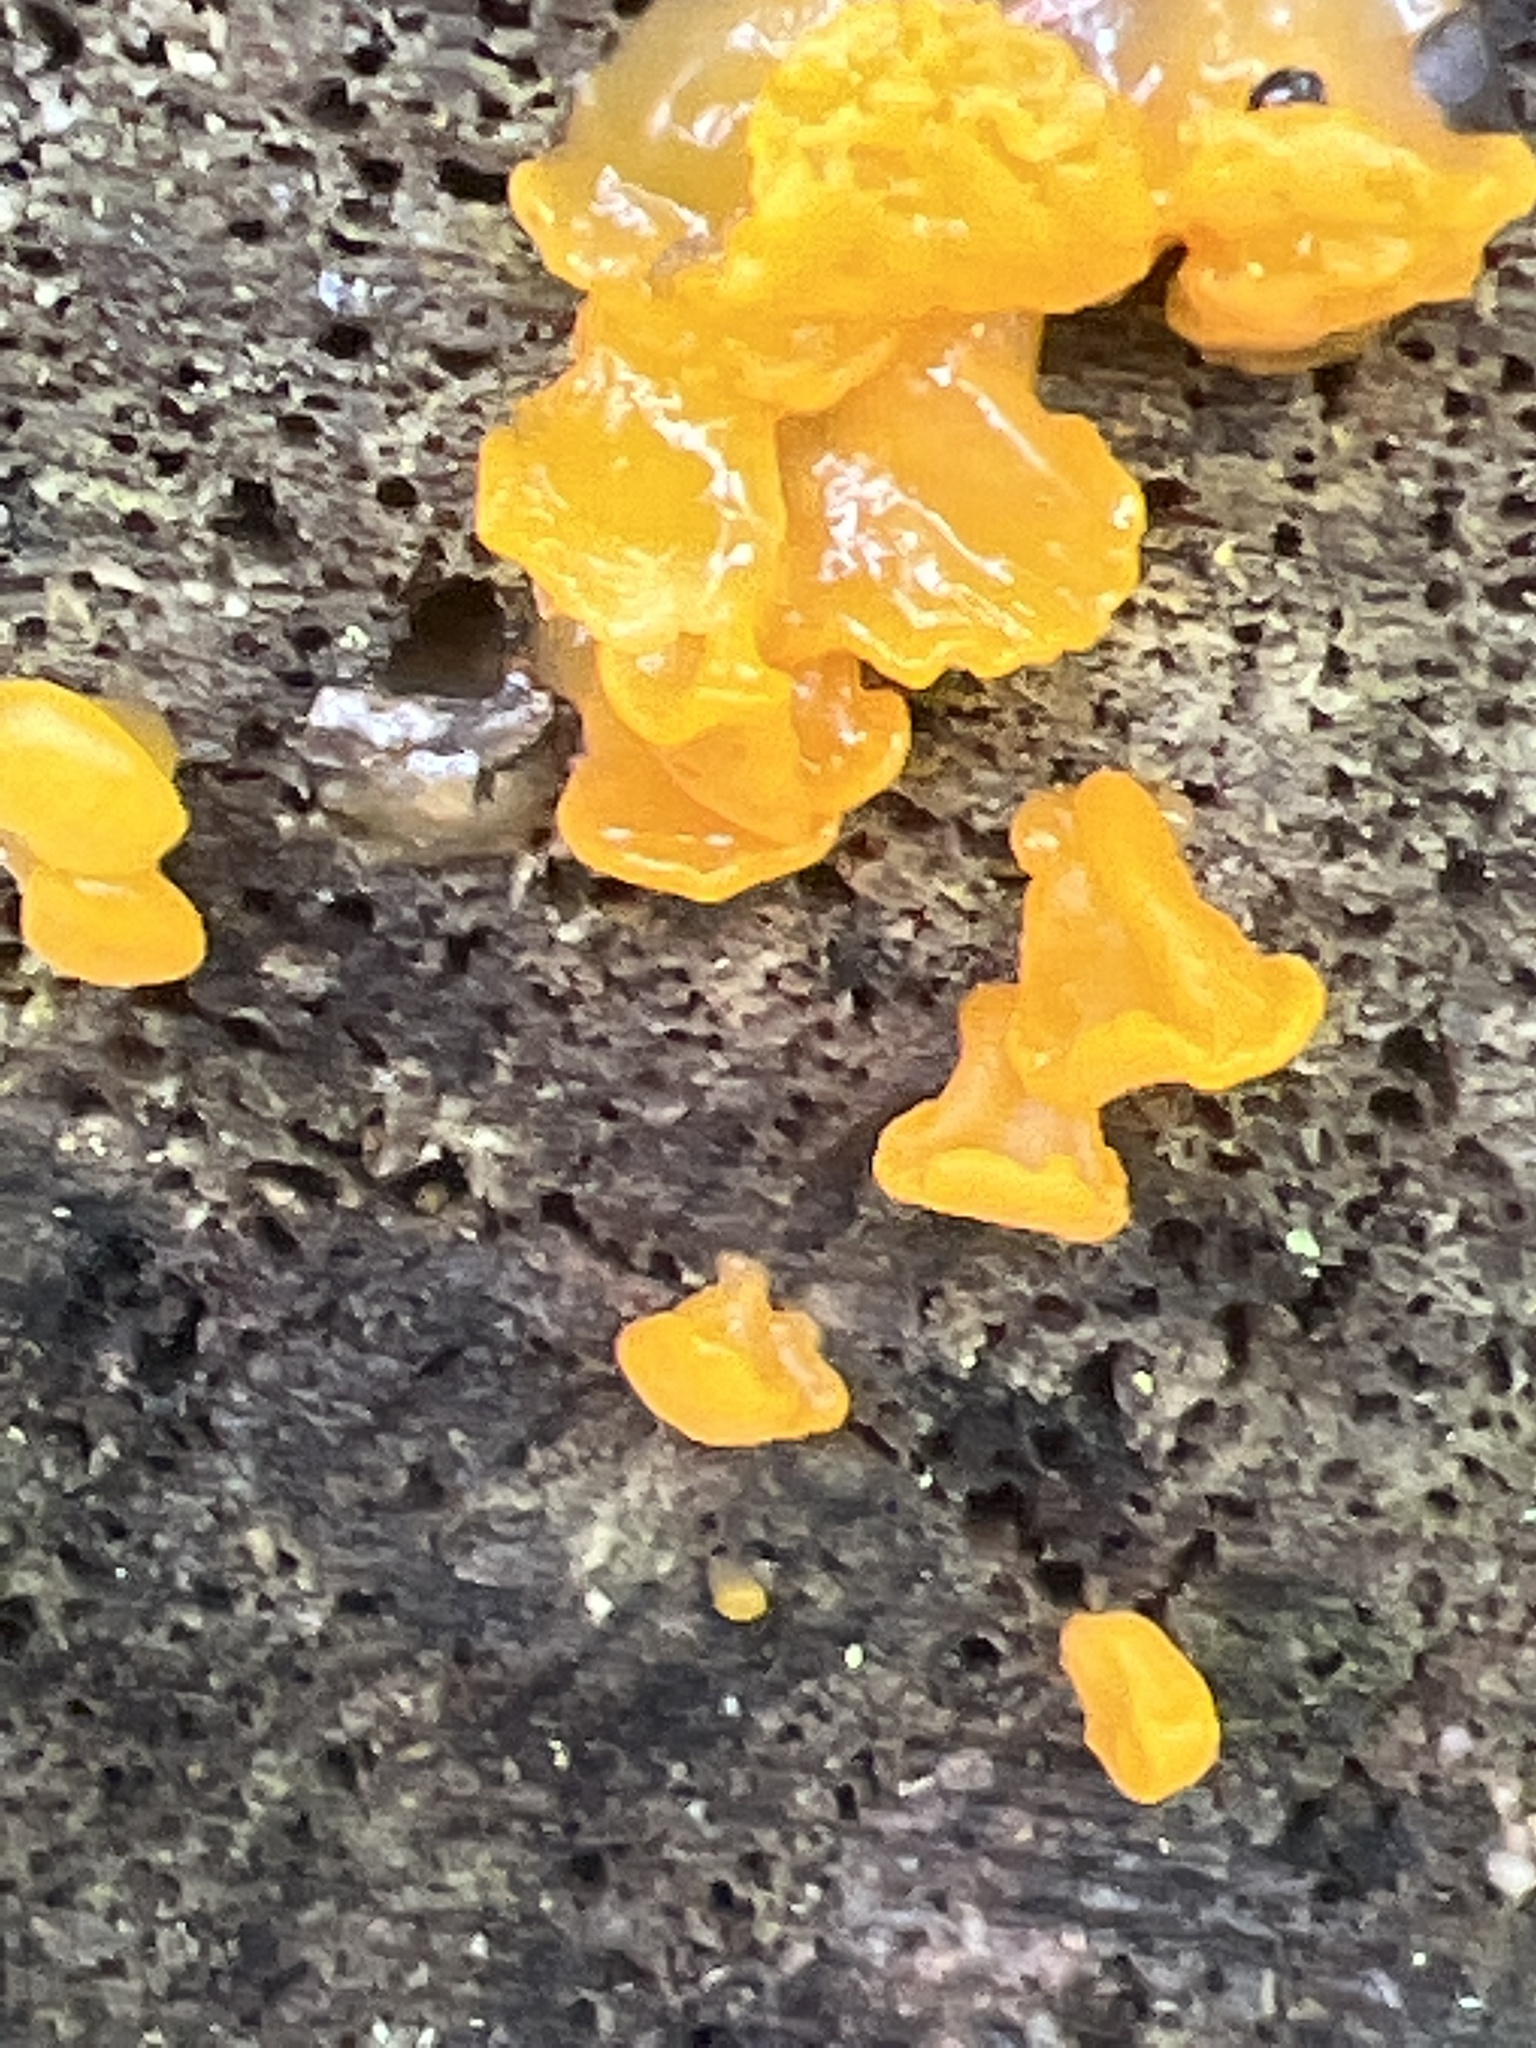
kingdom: Fungi
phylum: Basidiomycota
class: Dacrymycetes
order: Dacrymycetales
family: Dacrymycetaceae
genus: Dacrymyces
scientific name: Dacrymyces chrysospermus
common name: Orange jelly spot
